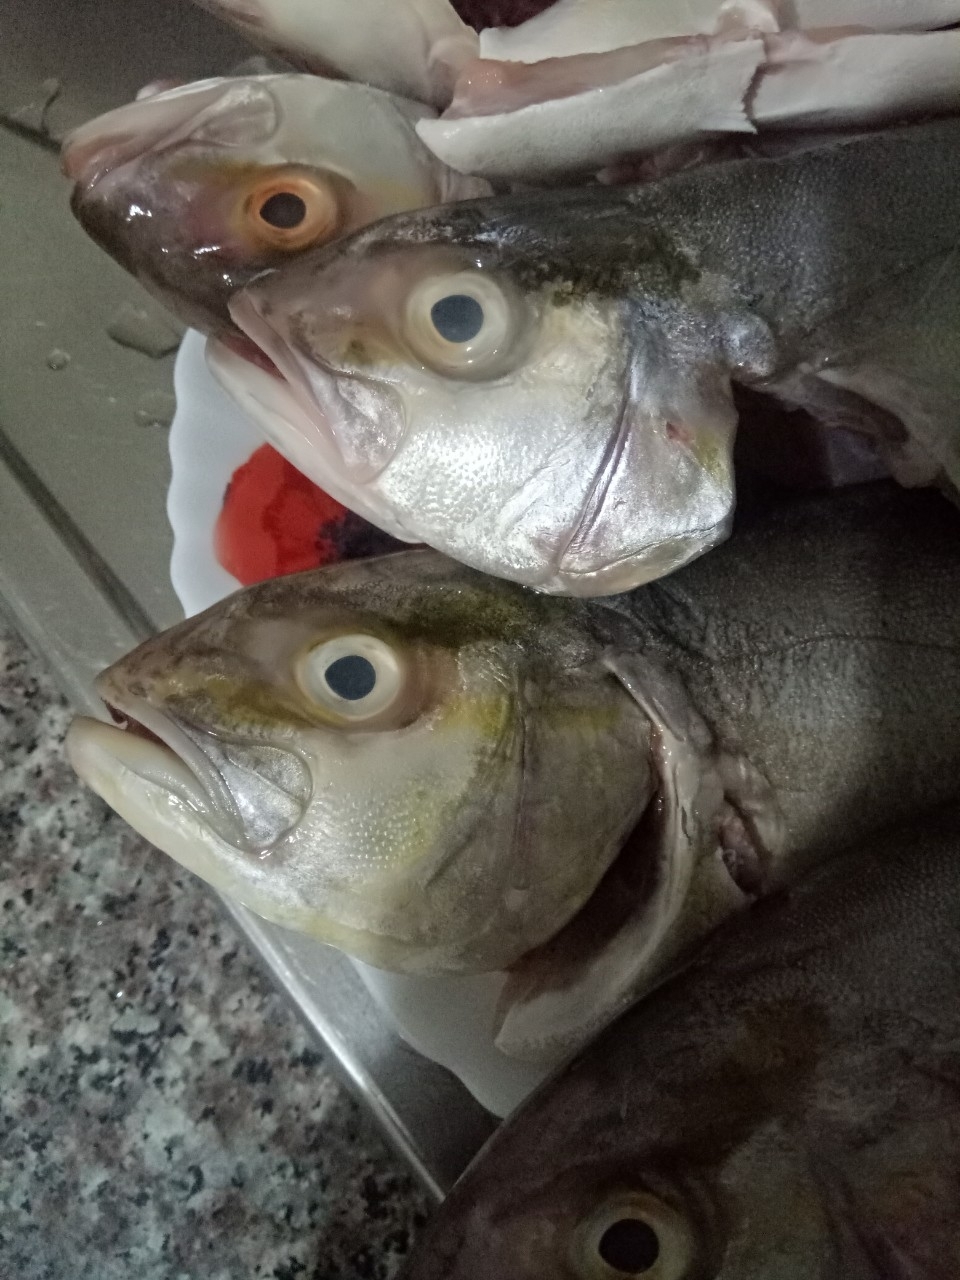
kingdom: Animalia
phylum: Chordata
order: Perciformes
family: Carangidae
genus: Seriola
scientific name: Seriola dumerili
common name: Greater amberjack
